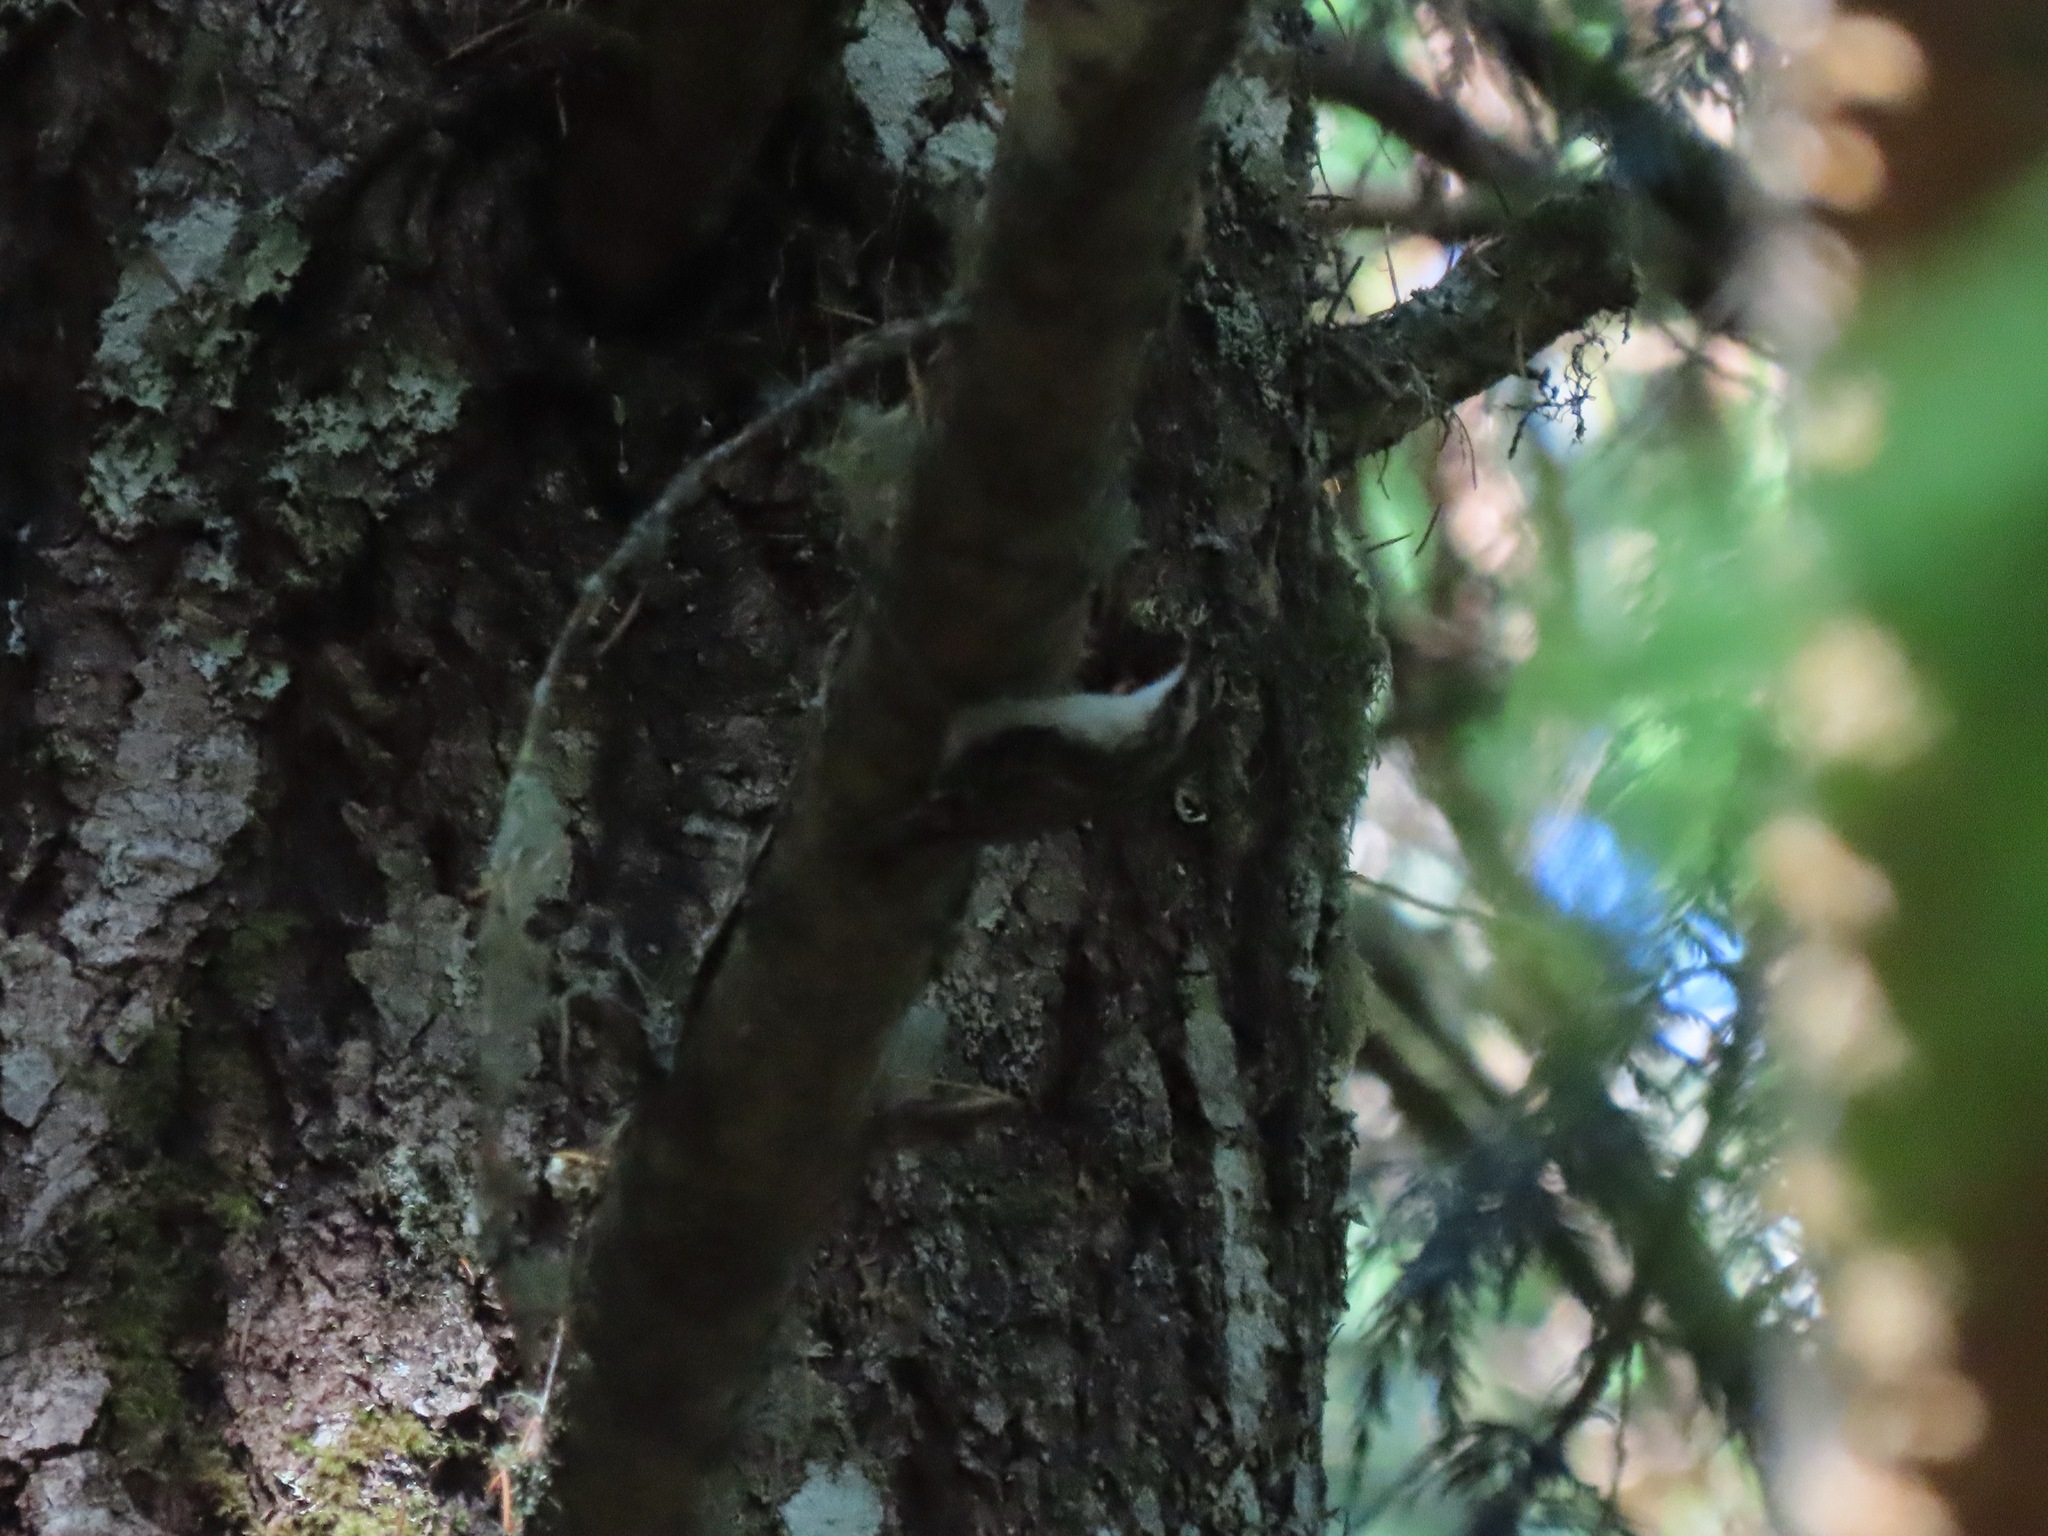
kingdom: Animalia
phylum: Chordata
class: Aves
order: Passeriformes
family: Certhiidae
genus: Certhia
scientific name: Certhia americana
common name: Brown creeper
